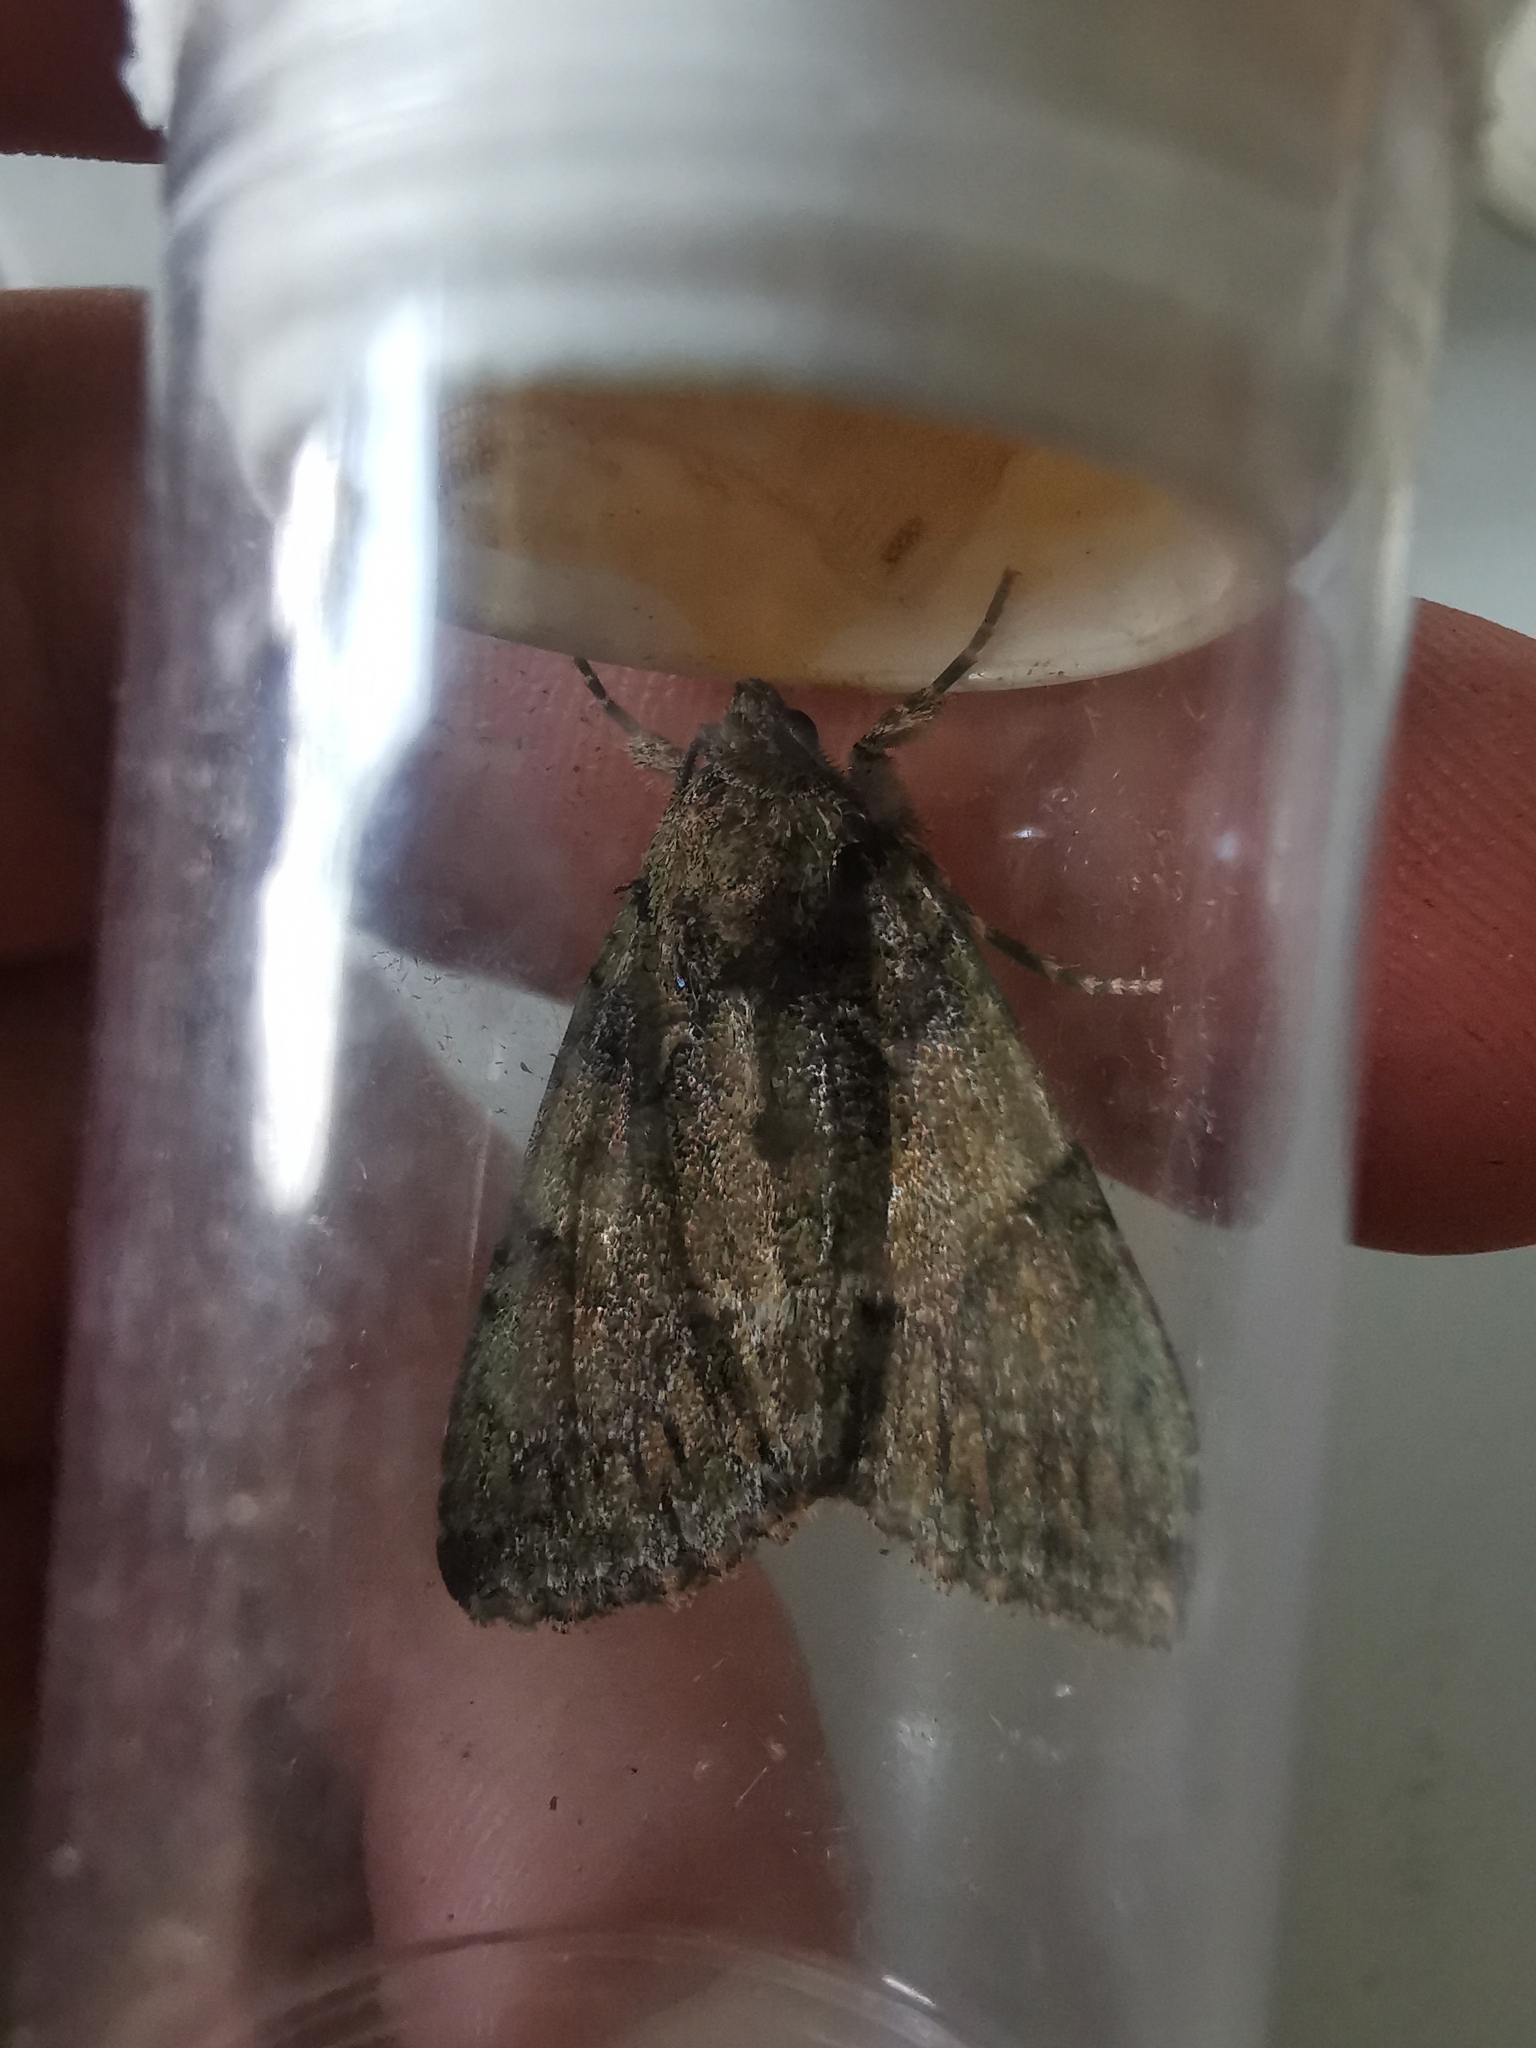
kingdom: Animalia
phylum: Arthropoda
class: Insecta
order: Lepidoptera
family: Noctuidae
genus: Polyphaenis
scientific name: Polyphaenis sericata
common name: Guernsey underwing
